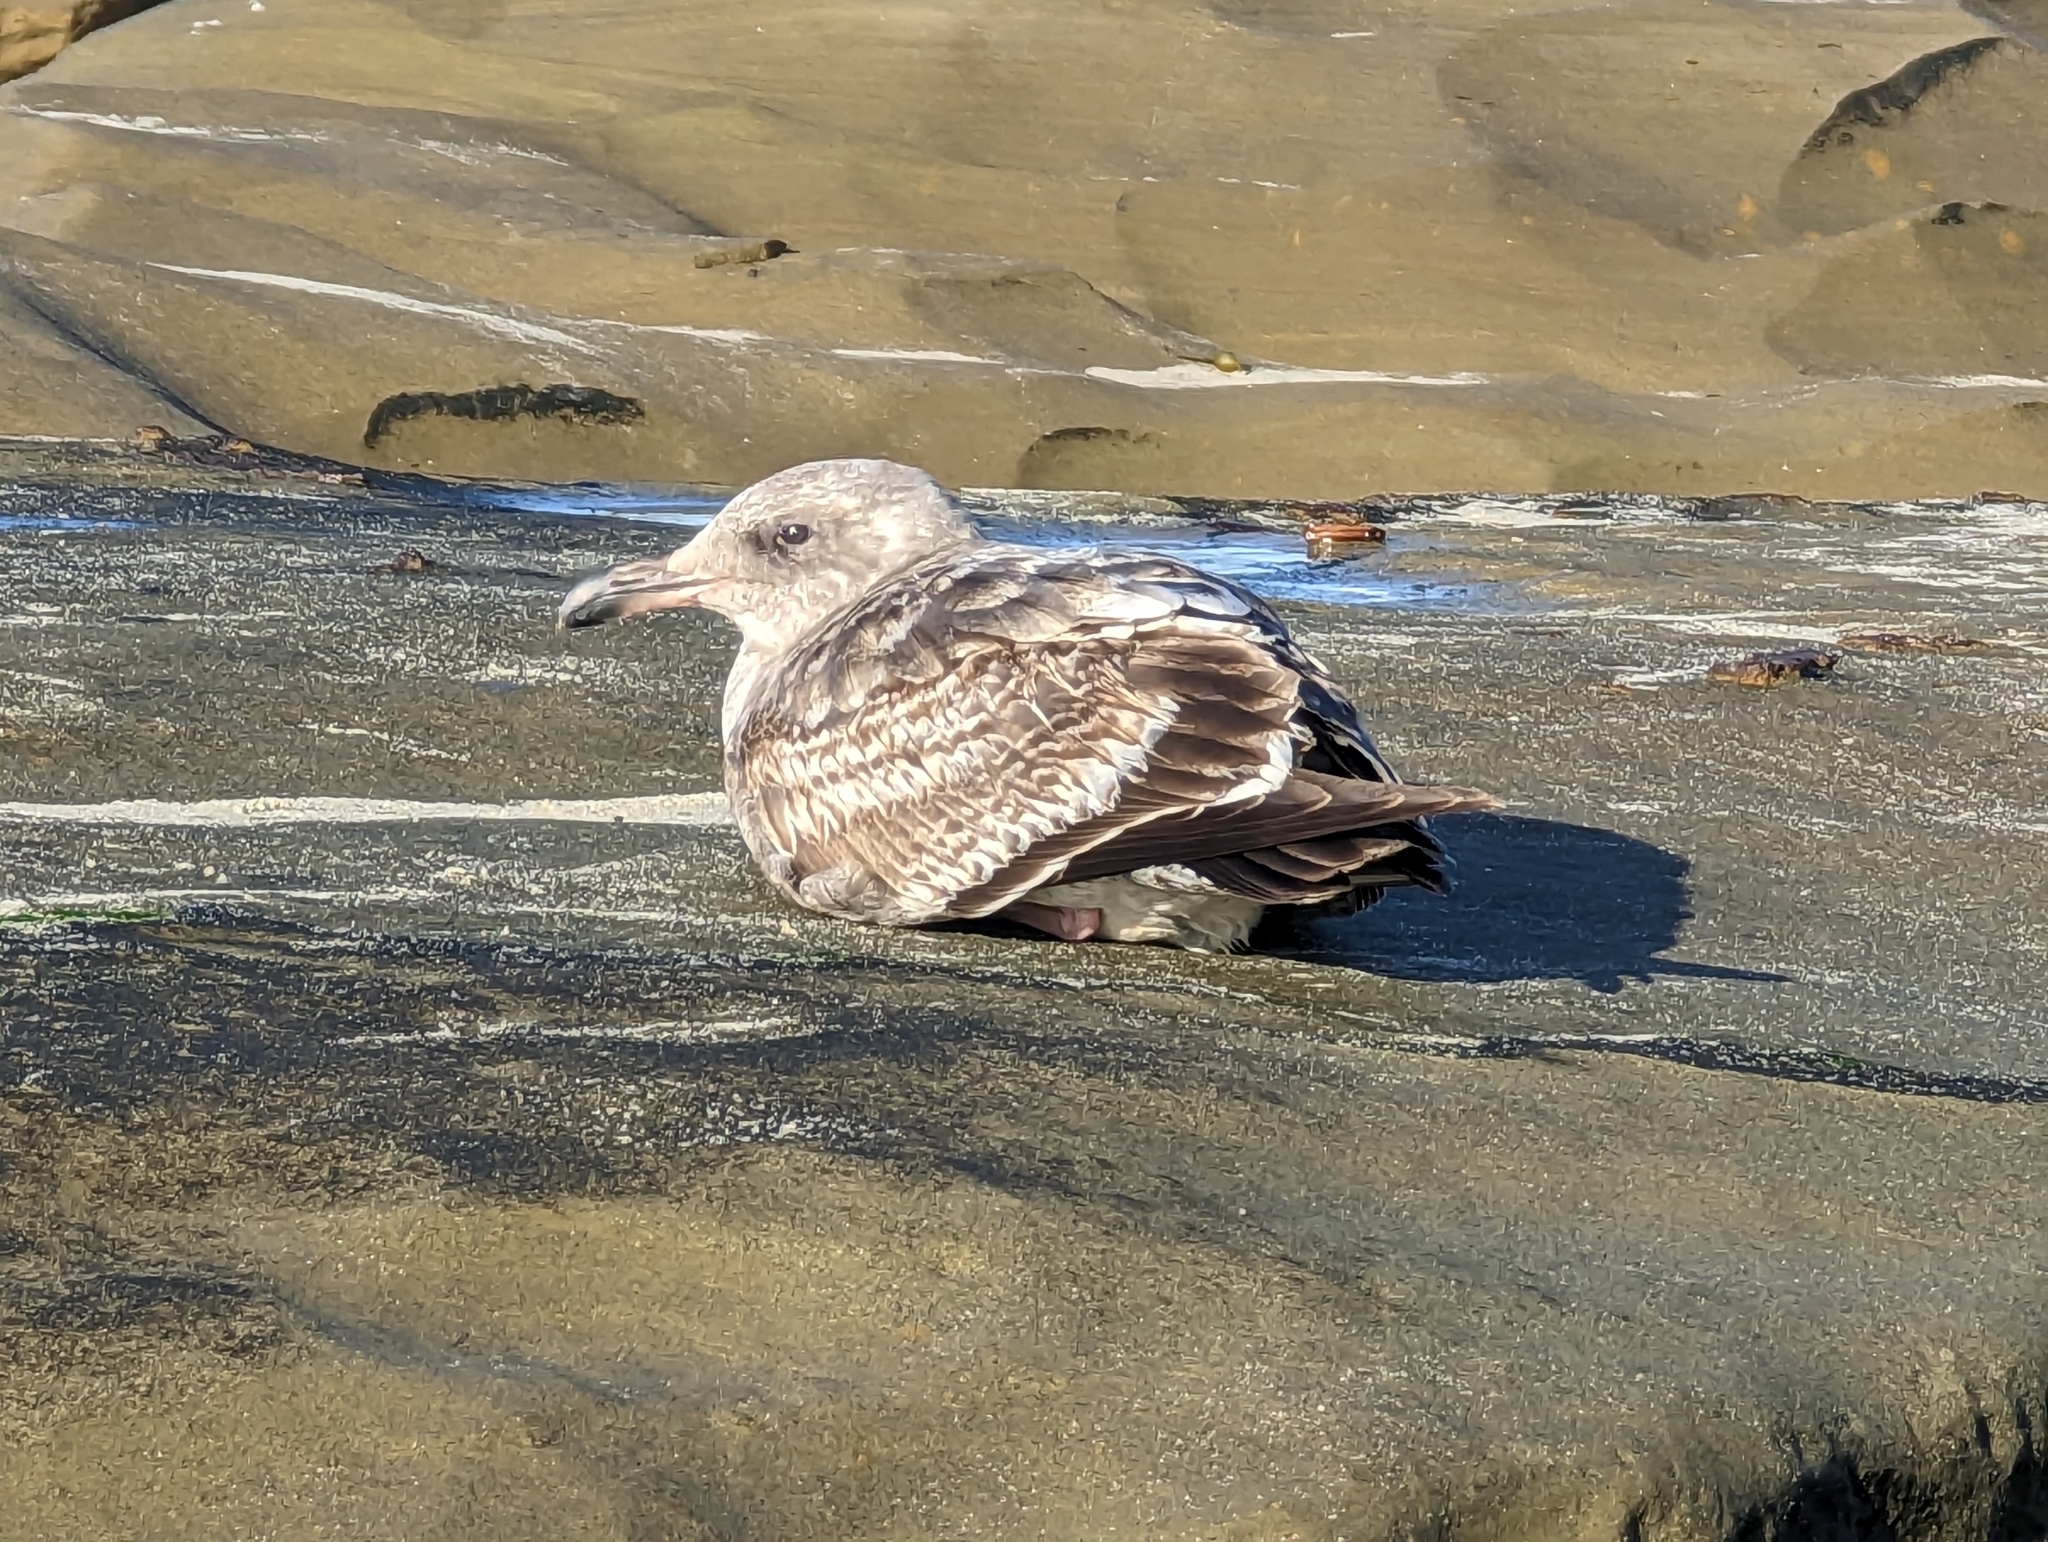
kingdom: Animalia
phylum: Chordata
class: Aves
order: Charadriiformes
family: Laridae
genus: Larus
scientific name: Larus occidentalis
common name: Western gull
